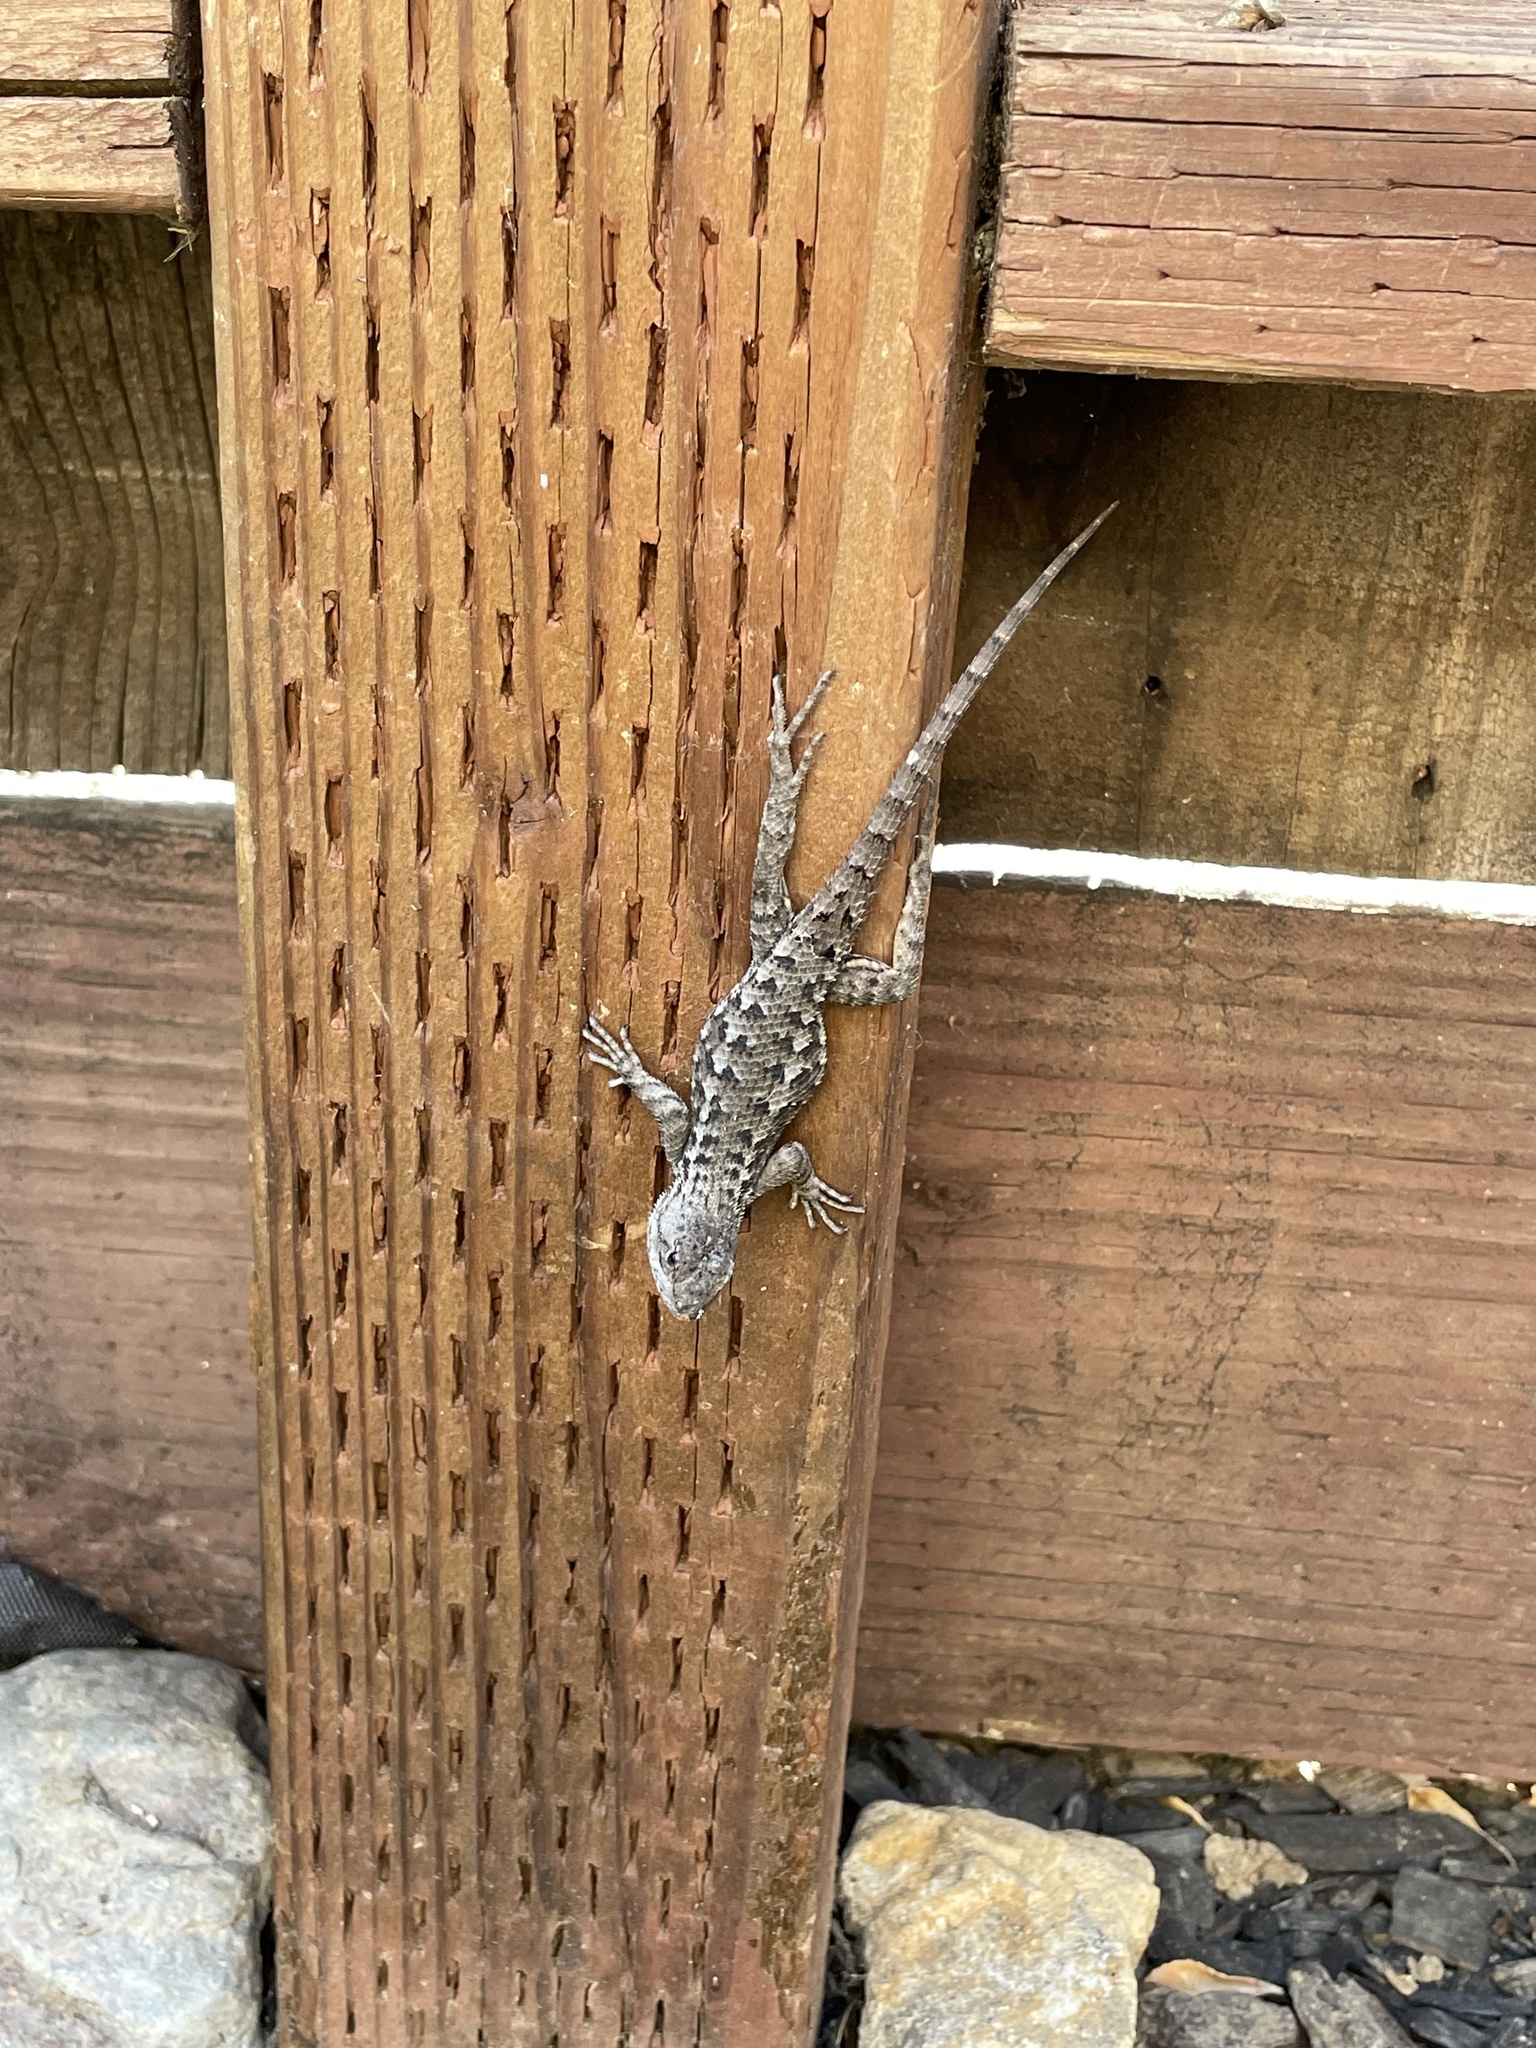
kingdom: Animalia
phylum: Chordata
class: Squamata
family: Phrynosomatidae
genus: Sceloporus
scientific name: Sceloporus occidentalis
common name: Western fence lizard
